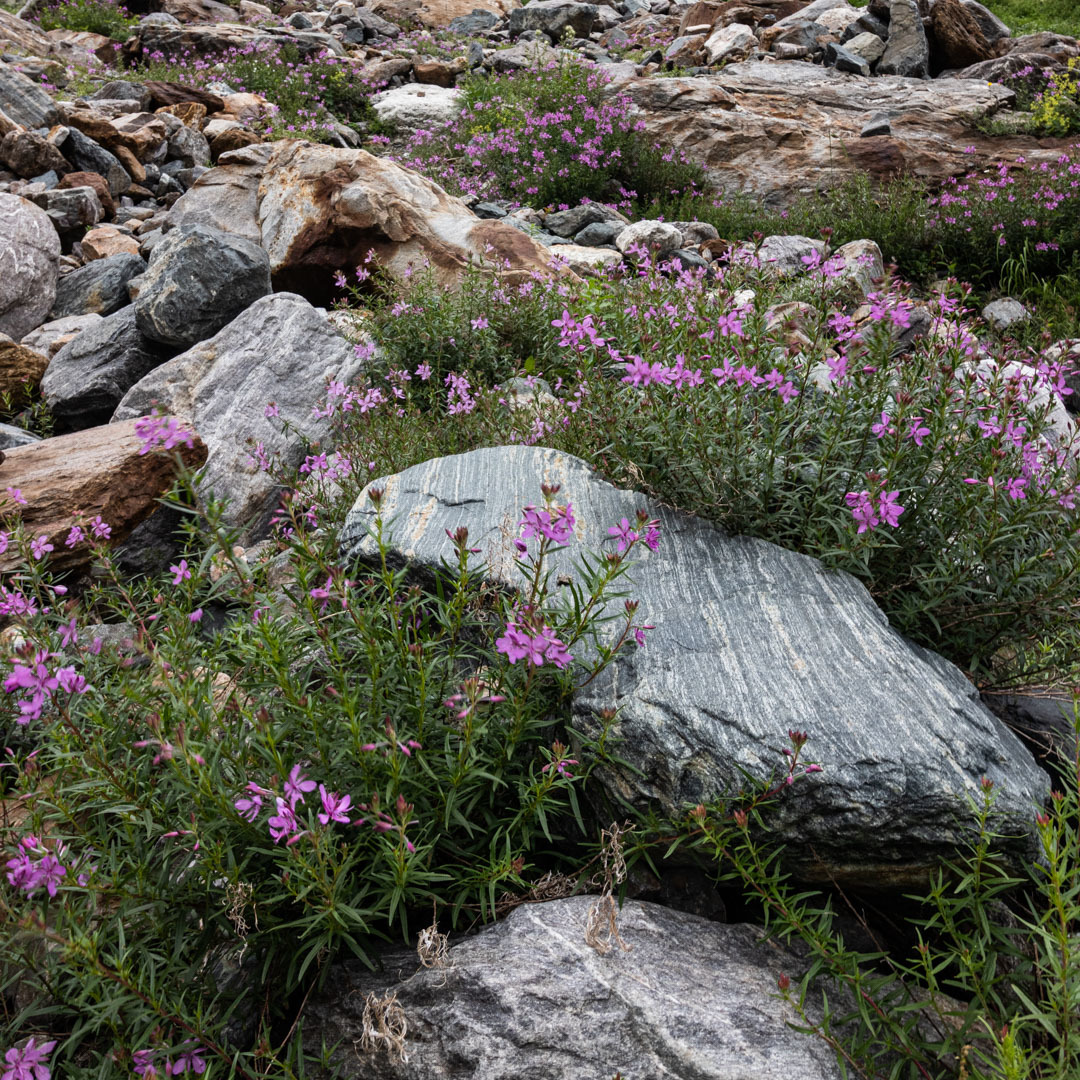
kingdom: Plantae
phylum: Tracheophyta
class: Magnoliopsida
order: Myrtales
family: Onagraceae
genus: Chamaenerion
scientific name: Chamaenerion colchicum
